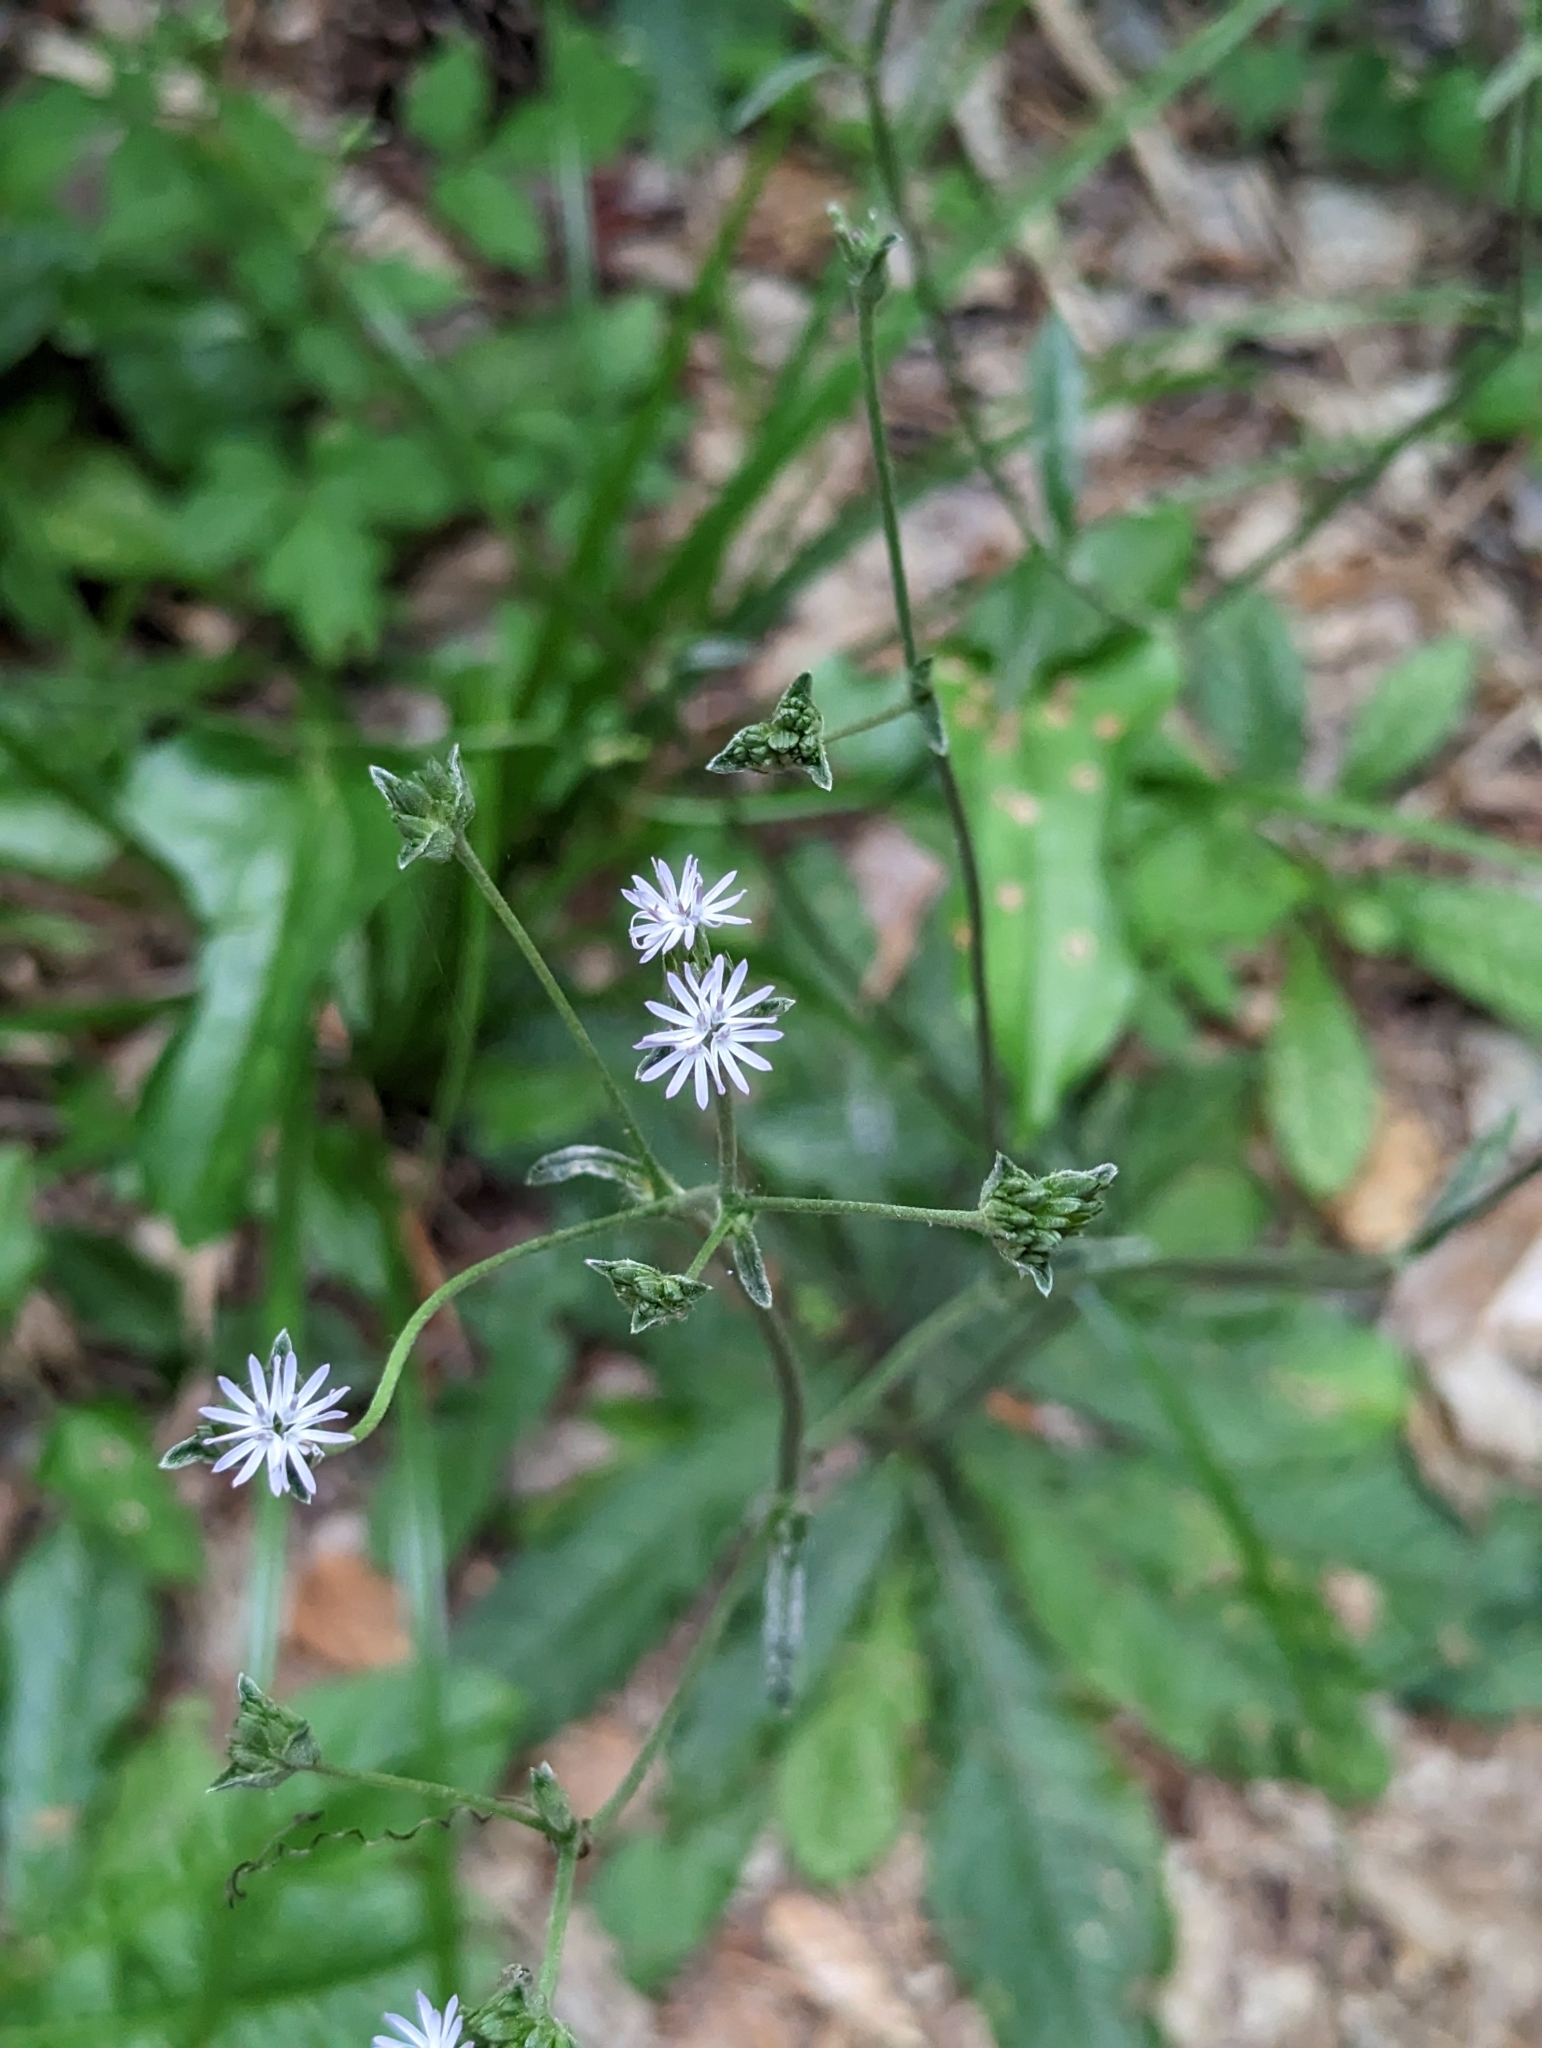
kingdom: Plantae
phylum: Tracheophyta
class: Magnoliopsida
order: Asterales
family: Asteraceae
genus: Elephantopus
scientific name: Elephantopus elatus
